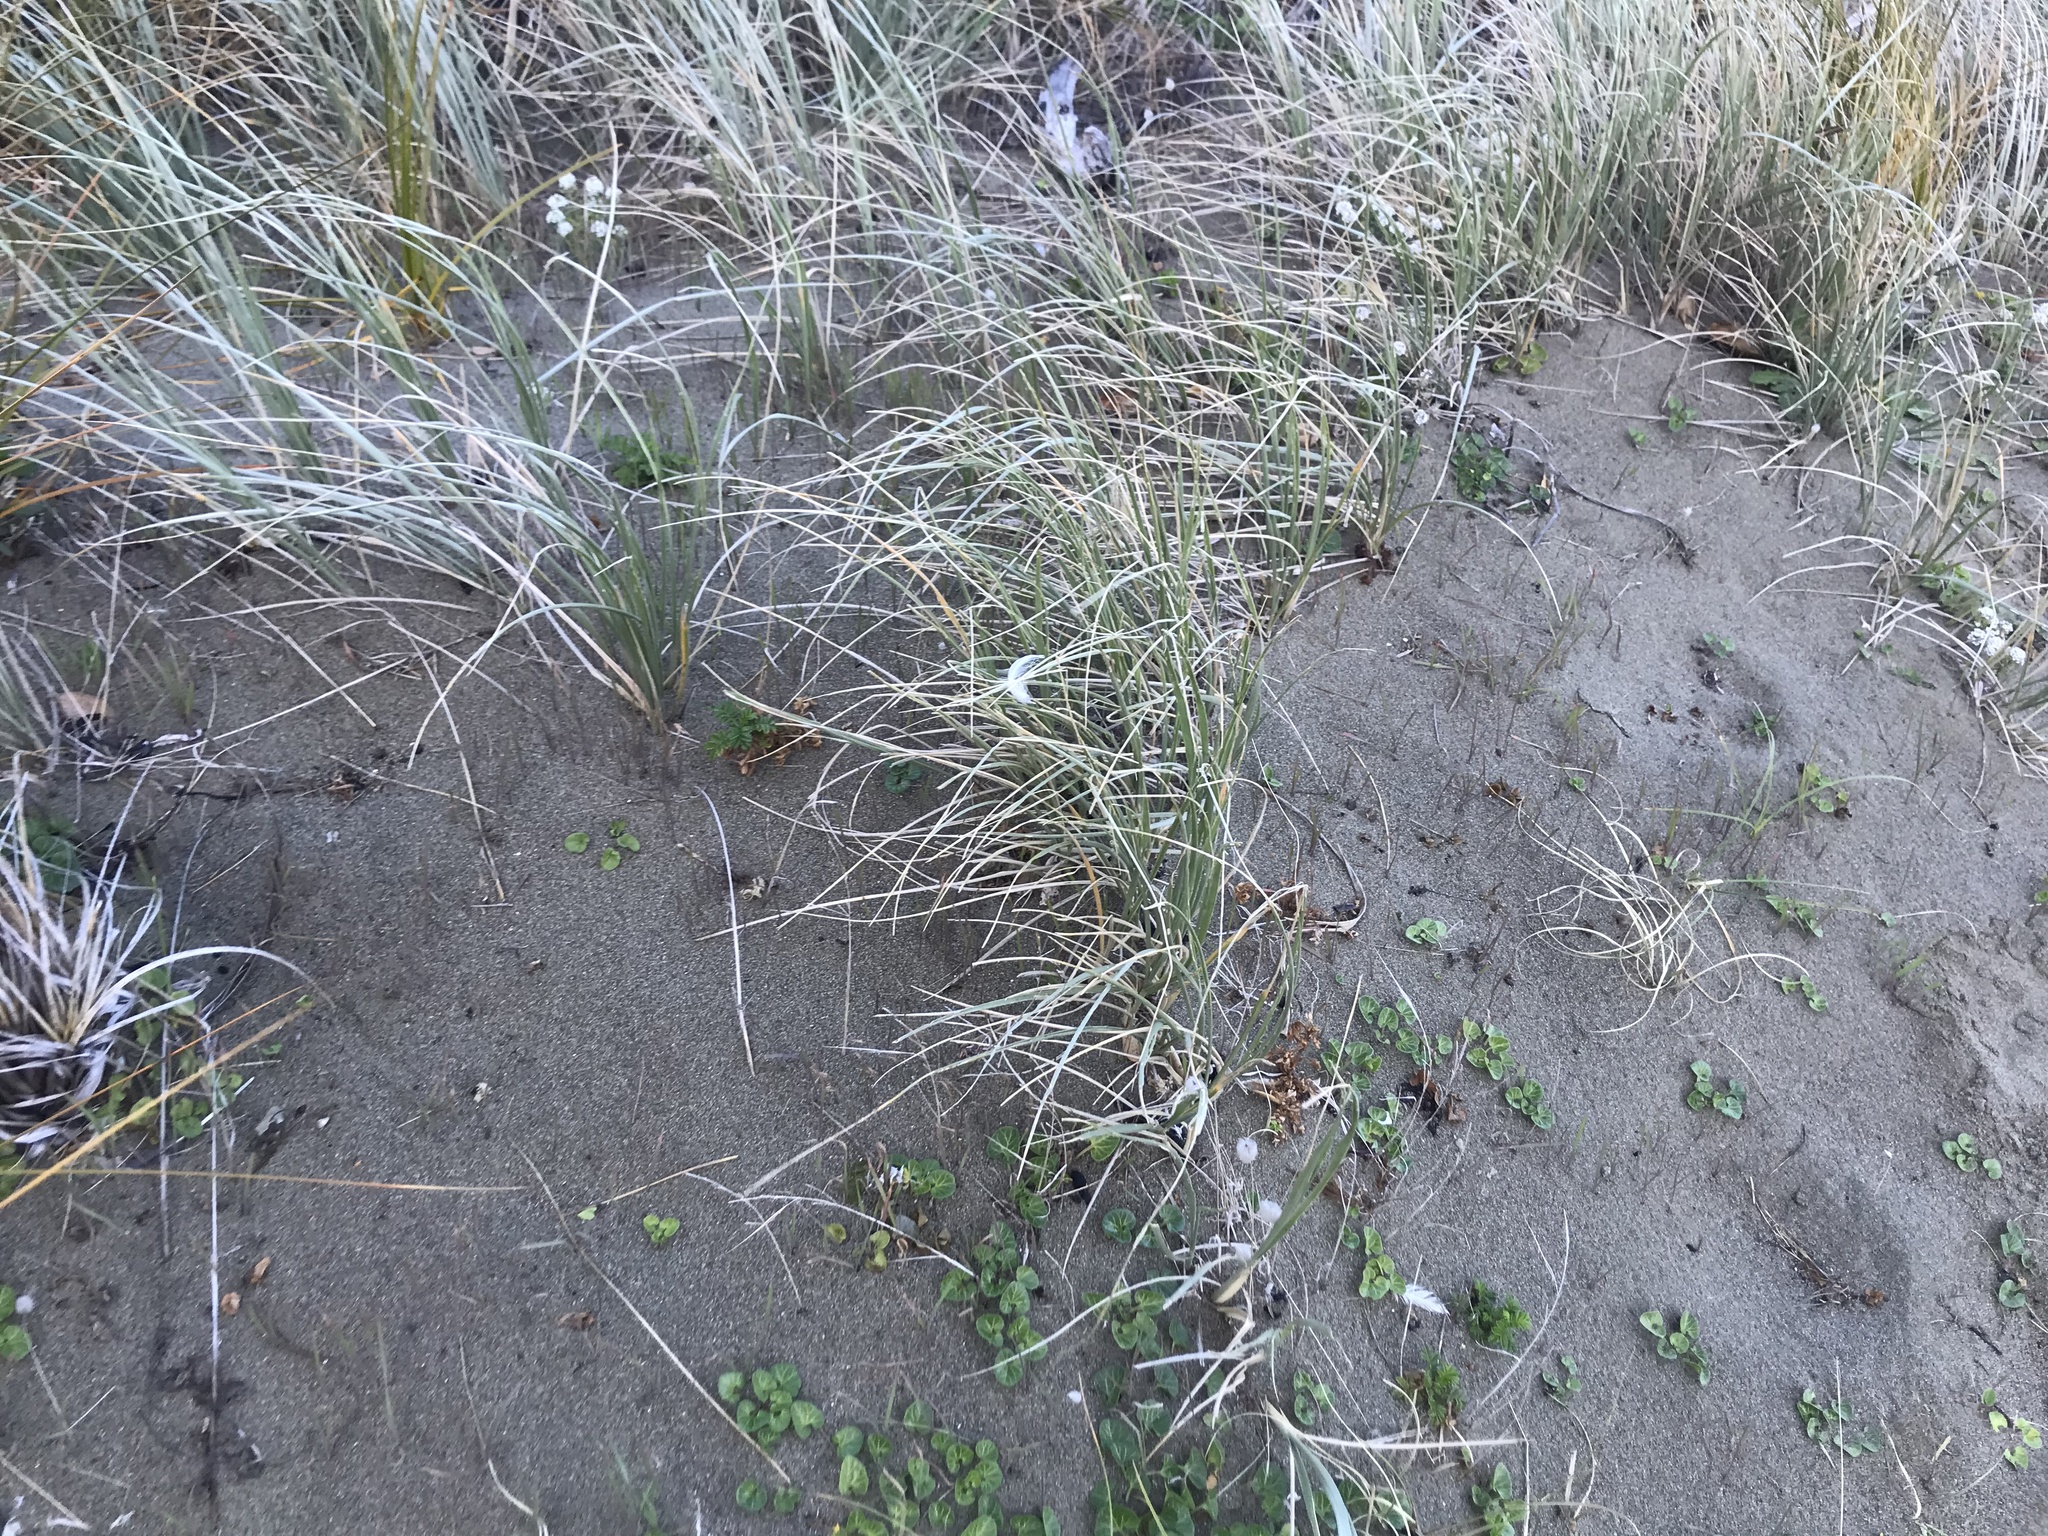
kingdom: Plantae
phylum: Tracheophyta
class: Liliopsida
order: Poales
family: Poaceae
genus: Spinifex
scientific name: Spinifex sericeus
